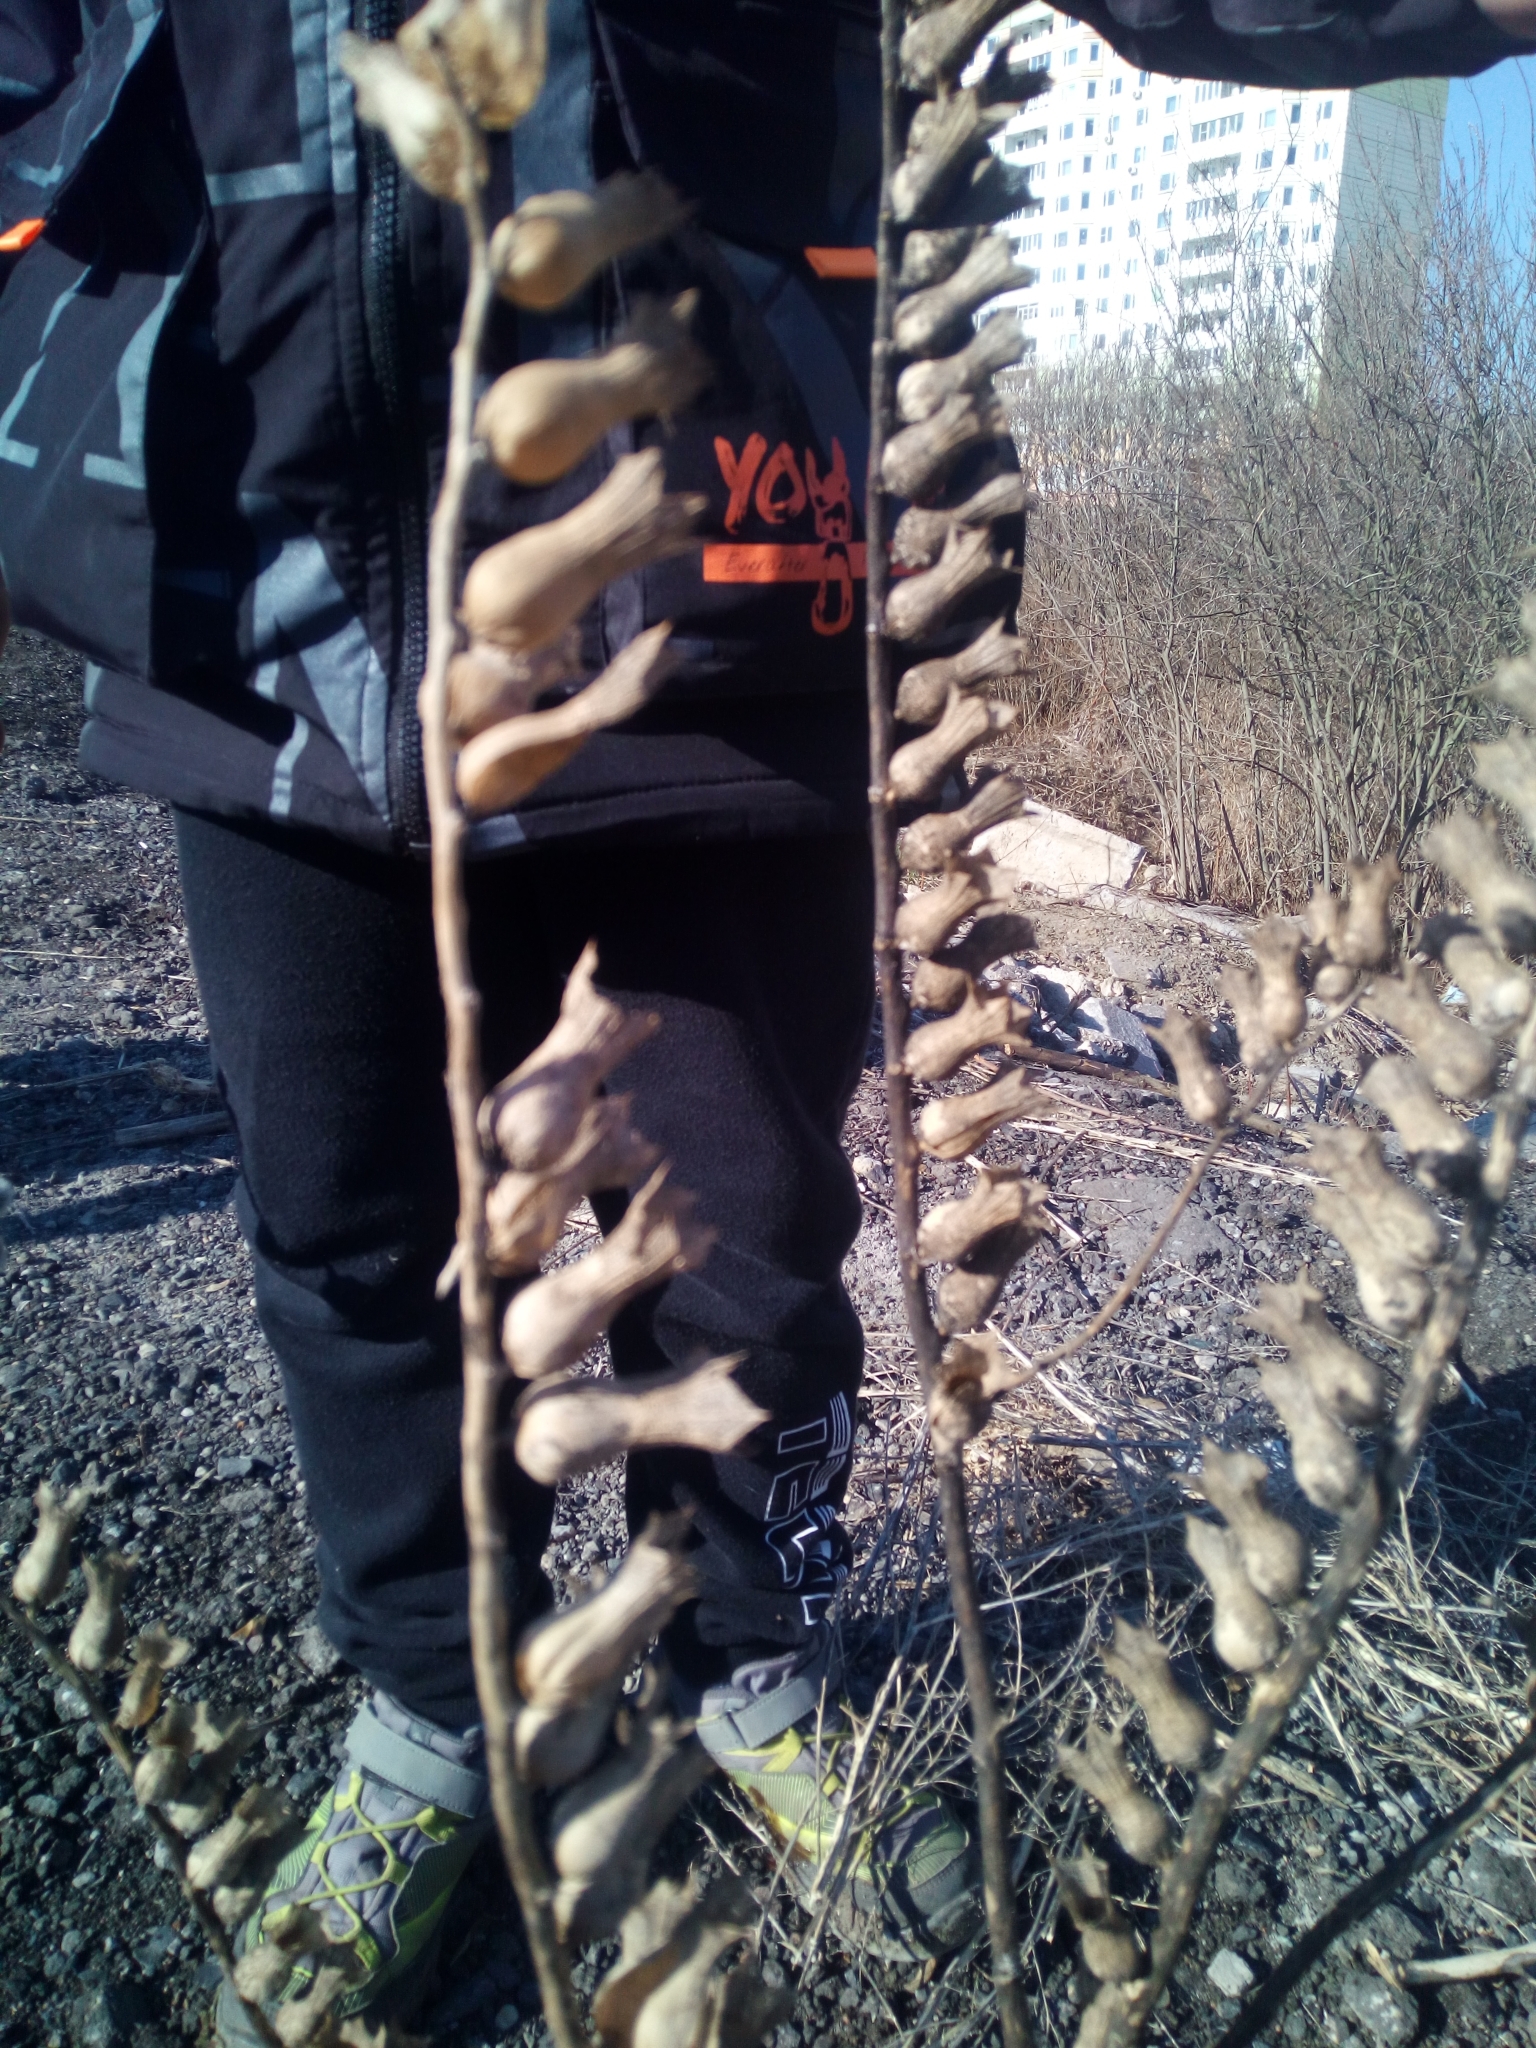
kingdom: Plantae
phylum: Tracheophyta
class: Magnoliopsida
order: Solanales
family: Solanaceae
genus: Hyoscyamus
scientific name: Hyoscyamus niger
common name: Henbane
